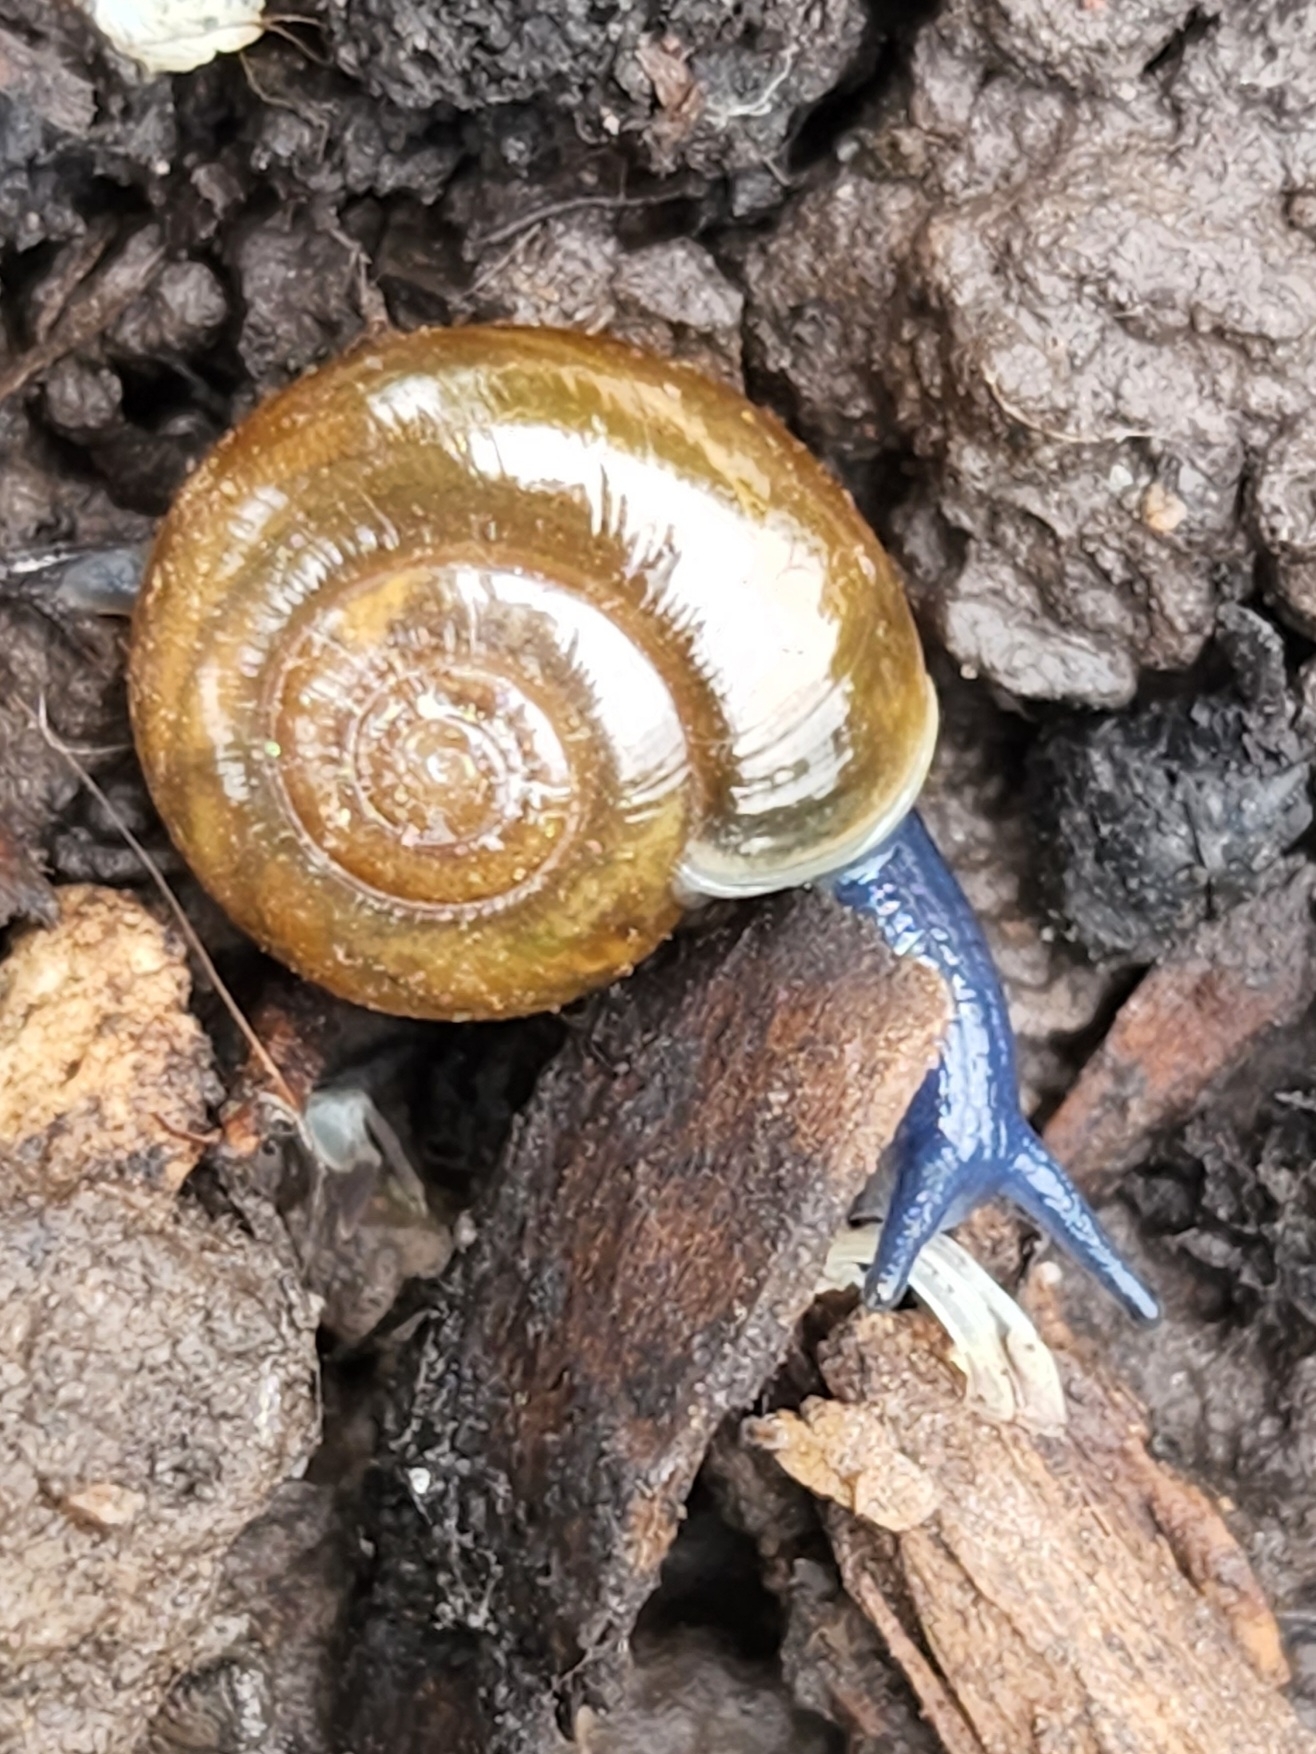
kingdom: Animalia
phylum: Mollusca
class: Gastropoda
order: Stylommatophora
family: Oxychilidae
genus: Oxychilus
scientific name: Oxychilus draparnaudi
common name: Draparnaud's glass snail
